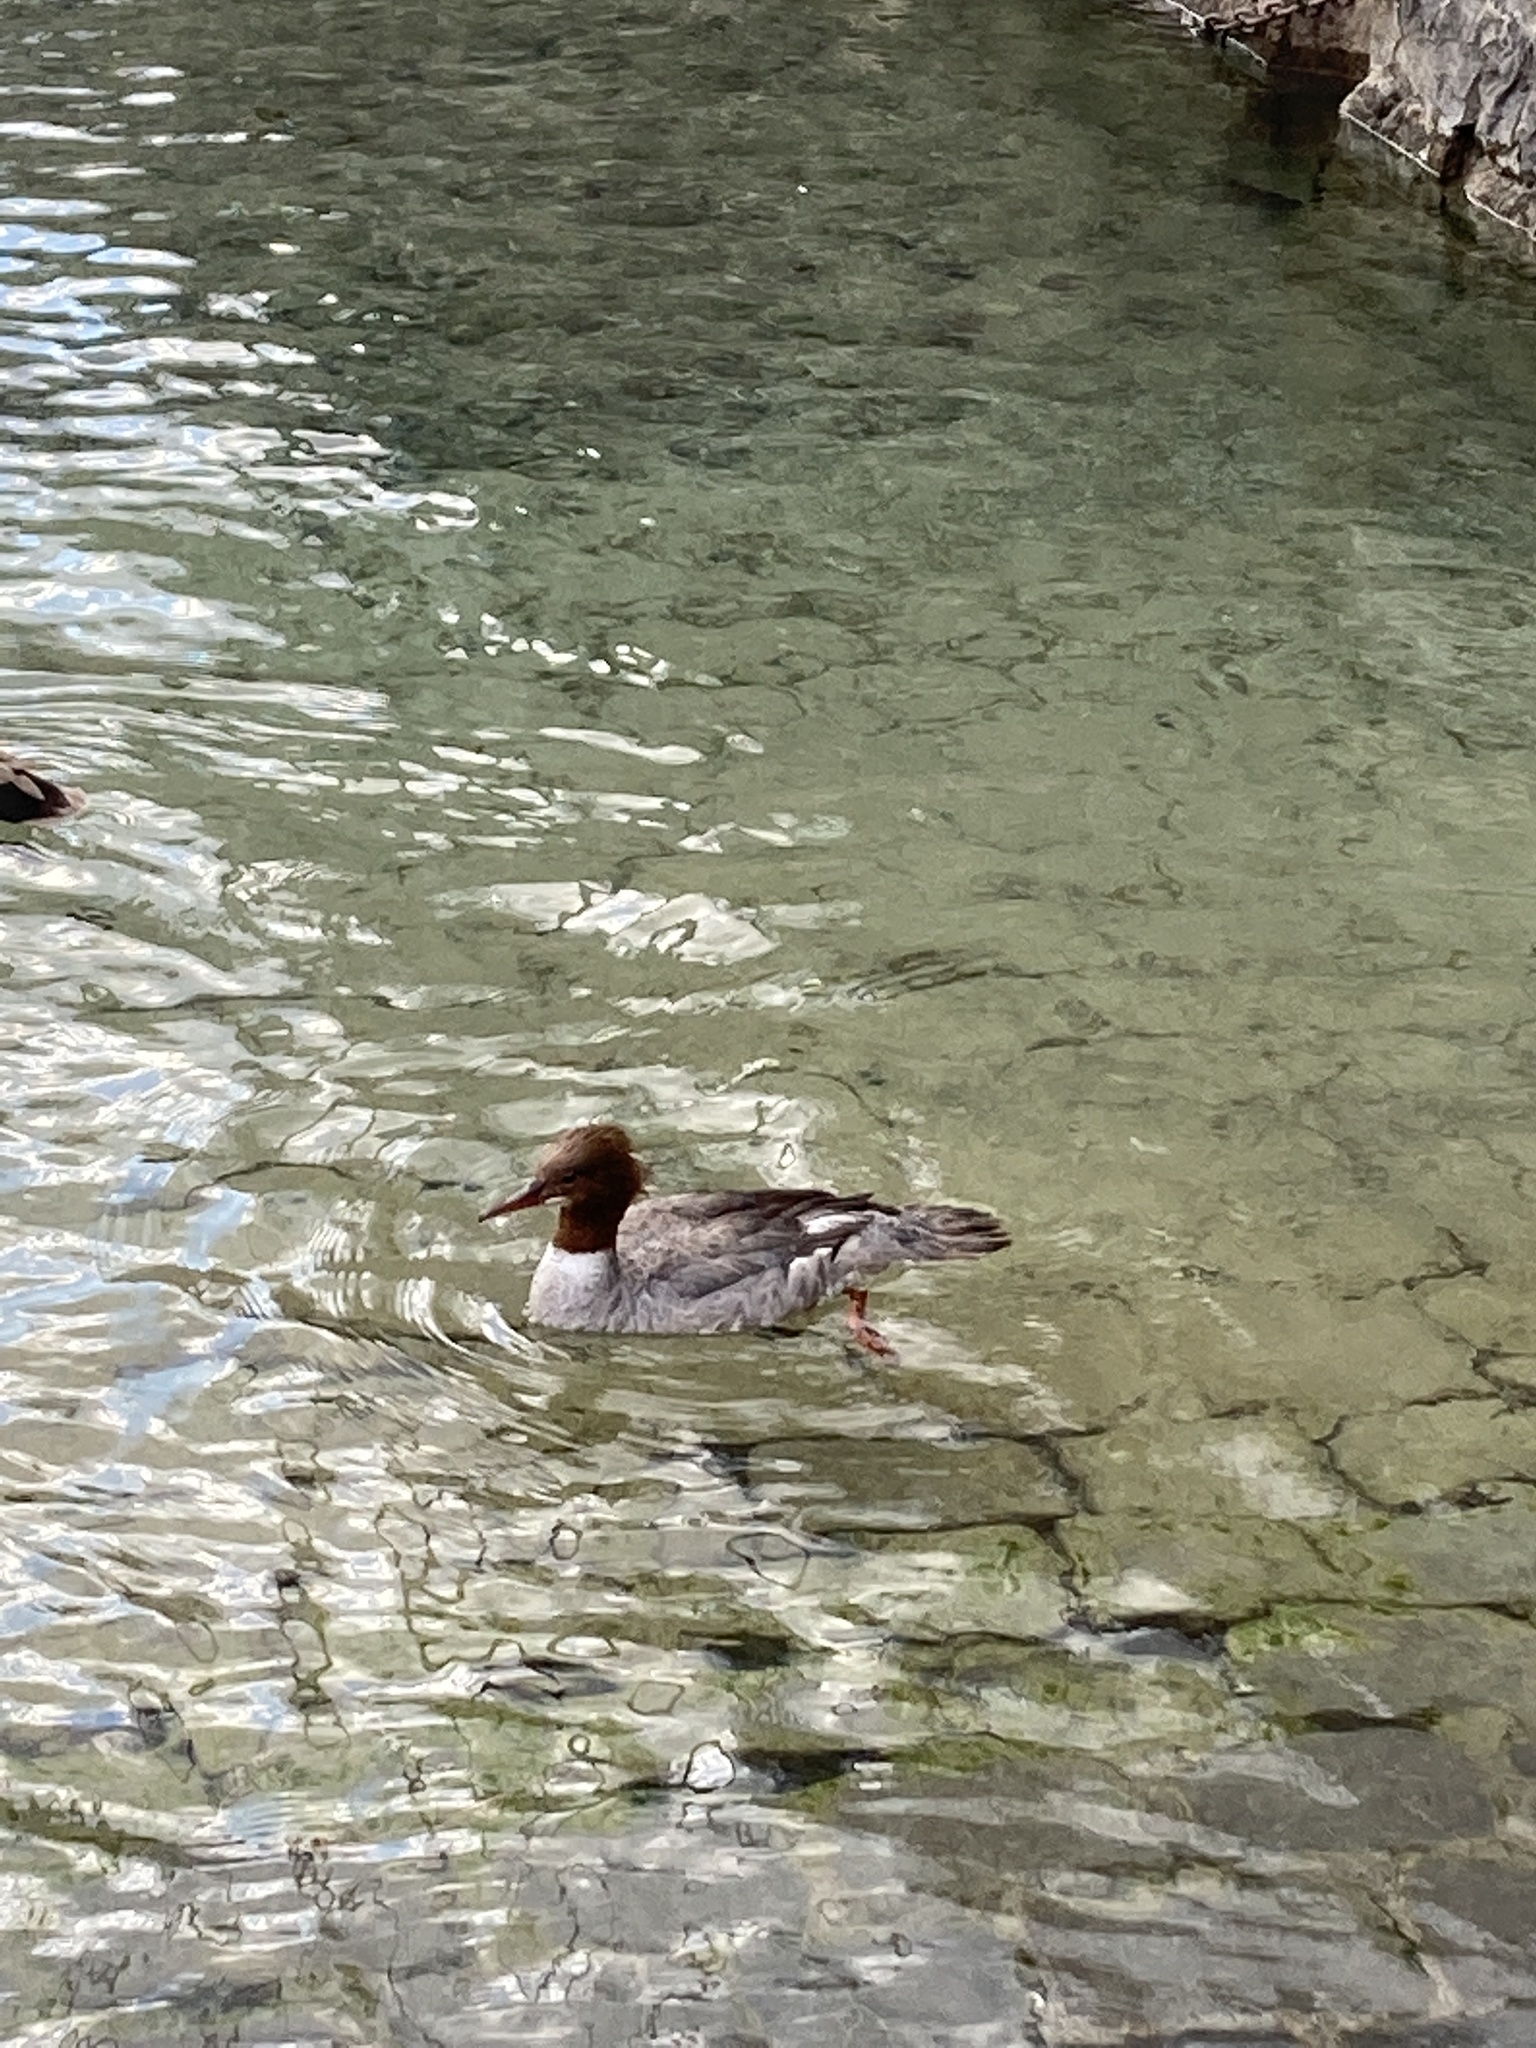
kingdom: Animalia
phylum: Chordata
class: Aves
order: Anseriformes
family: Anatidae
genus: Mergus
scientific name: Mergus merganser
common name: Common merganser
